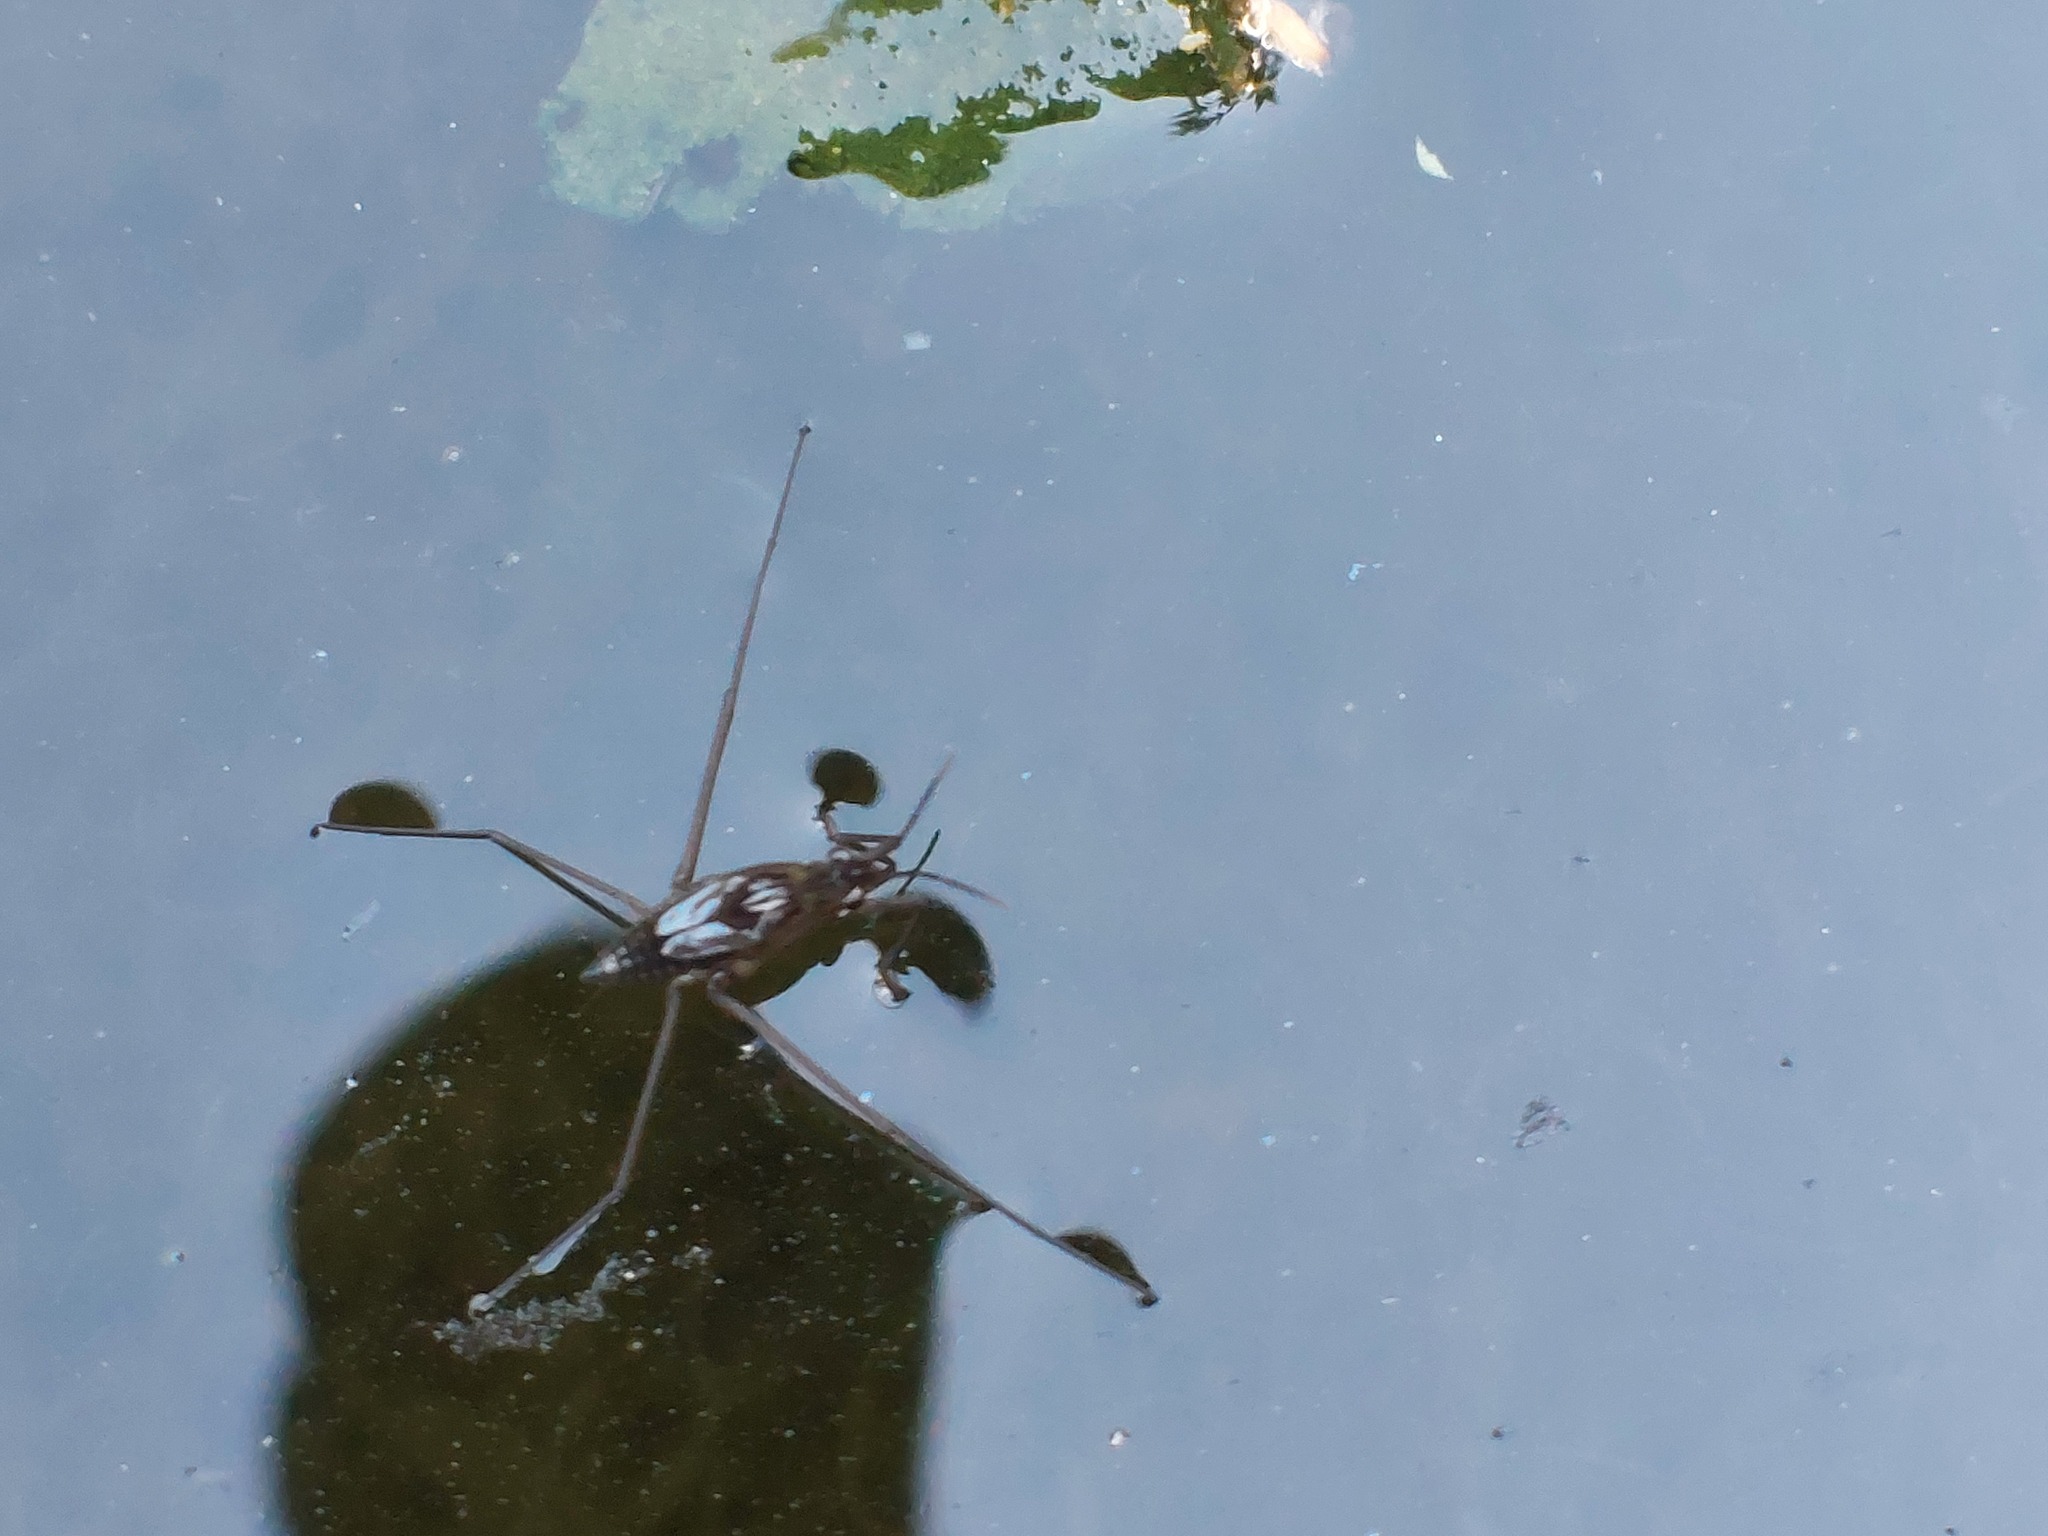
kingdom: Animalia
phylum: Arthropoda
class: Insecta
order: Hemiptera
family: Gerridae
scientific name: Gerridae
